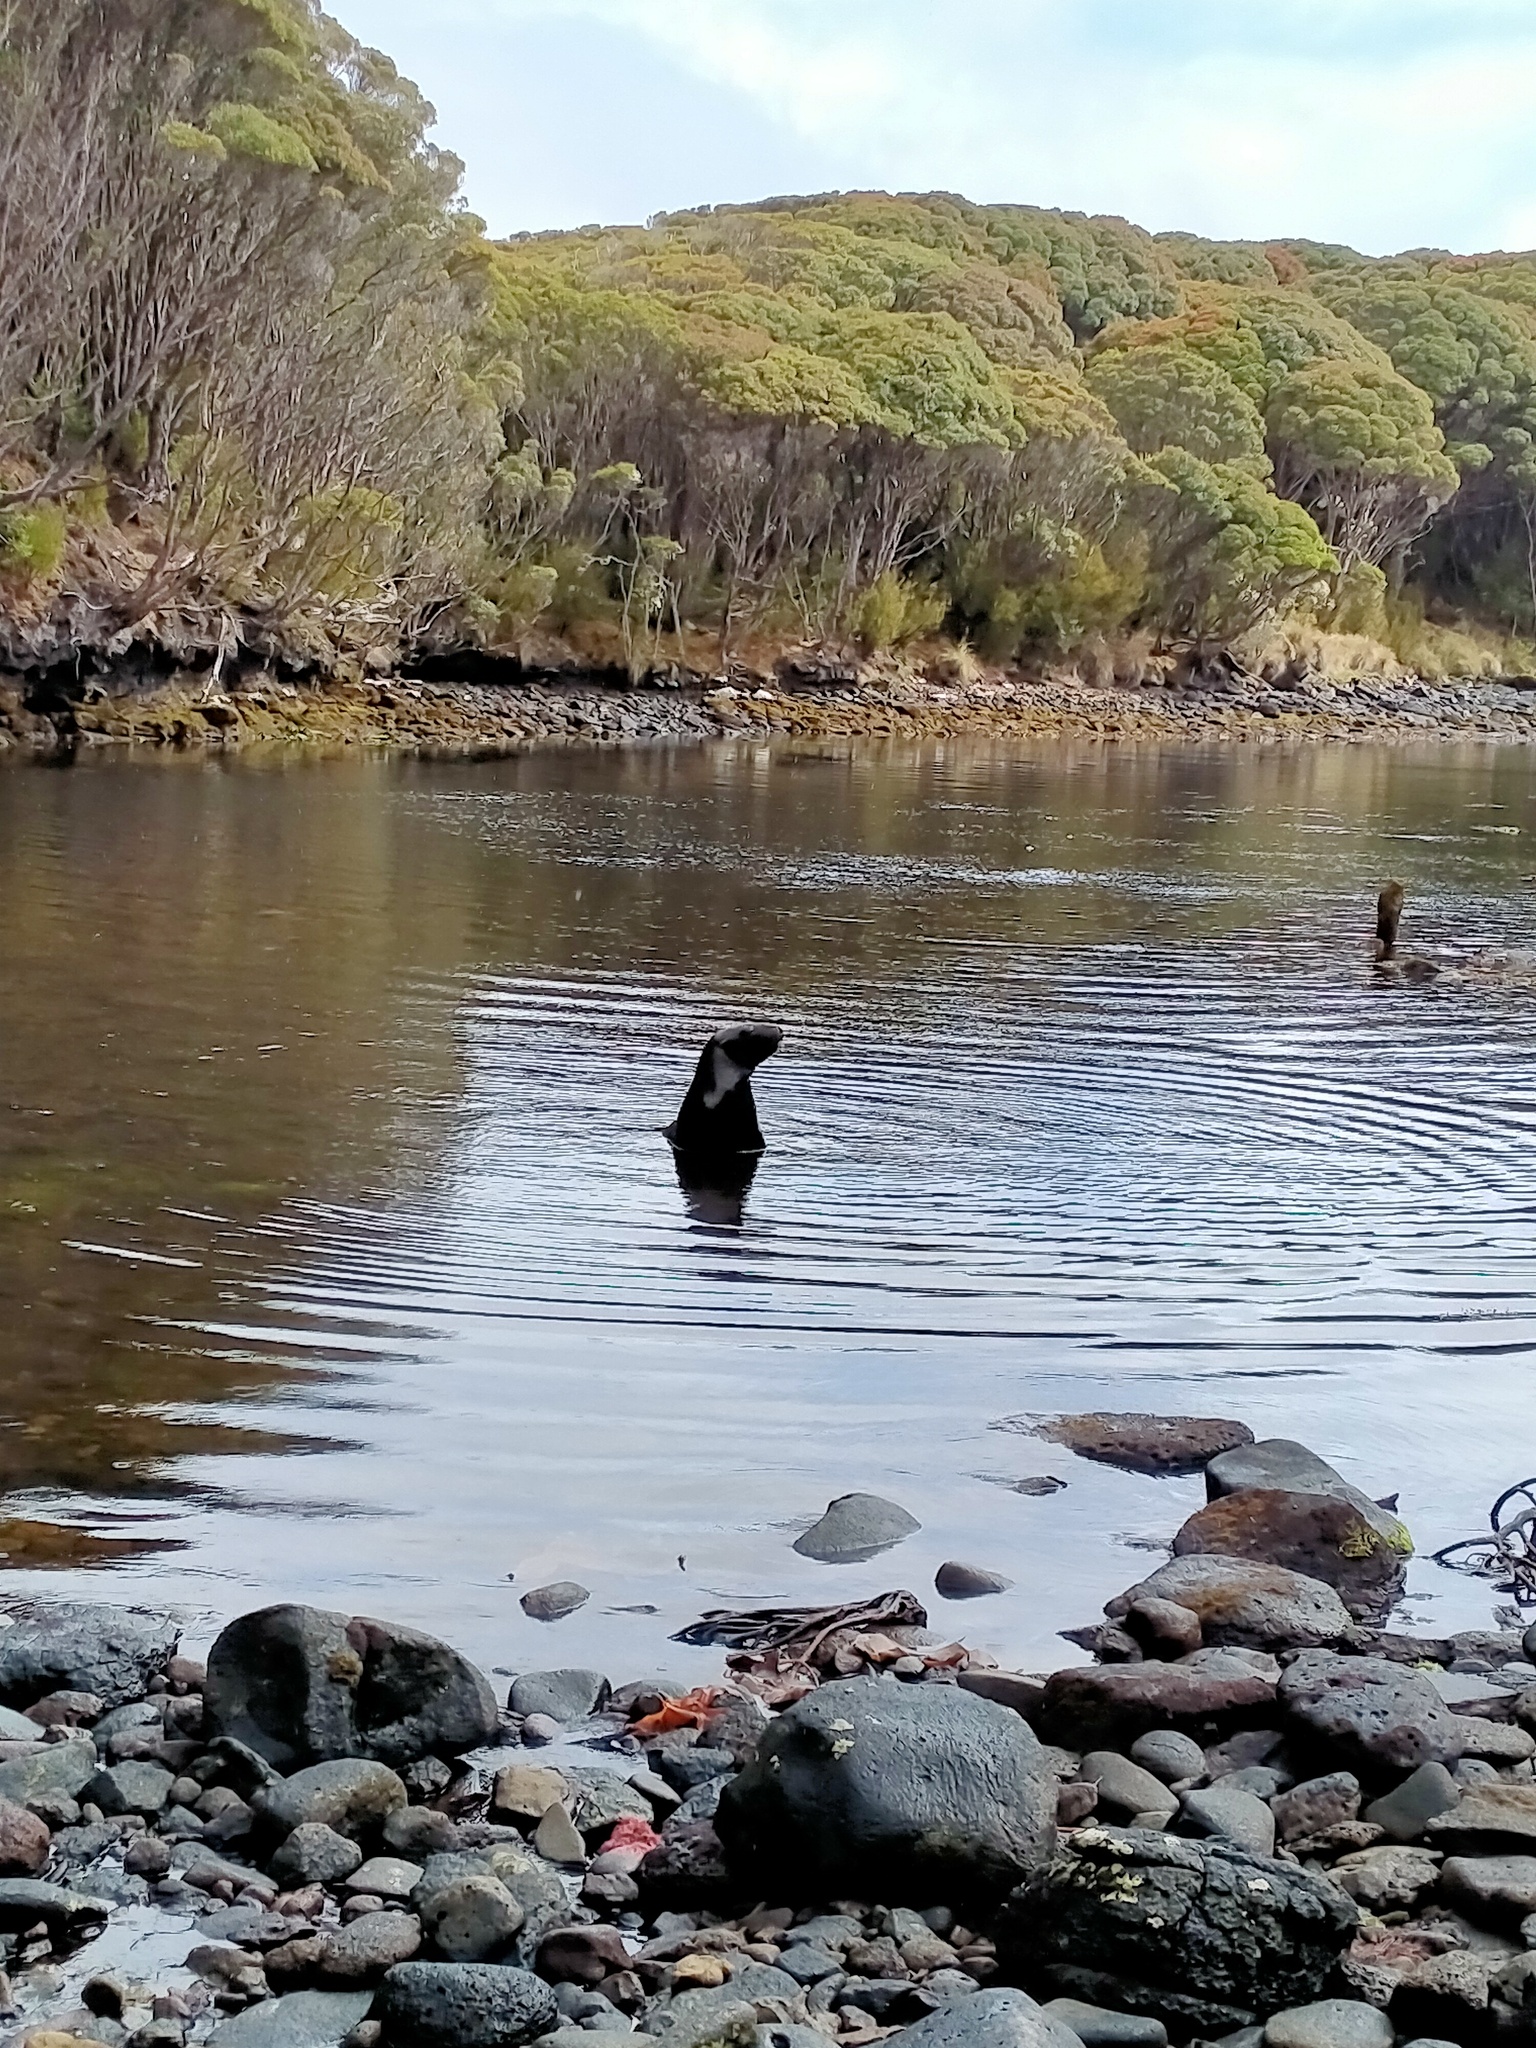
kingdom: Animalia
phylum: Chordata
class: Mammalia
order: Carnivora
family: Otariidae
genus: Phocarctos
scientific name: Phocarctos hookeri
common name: New zealand sea lion
